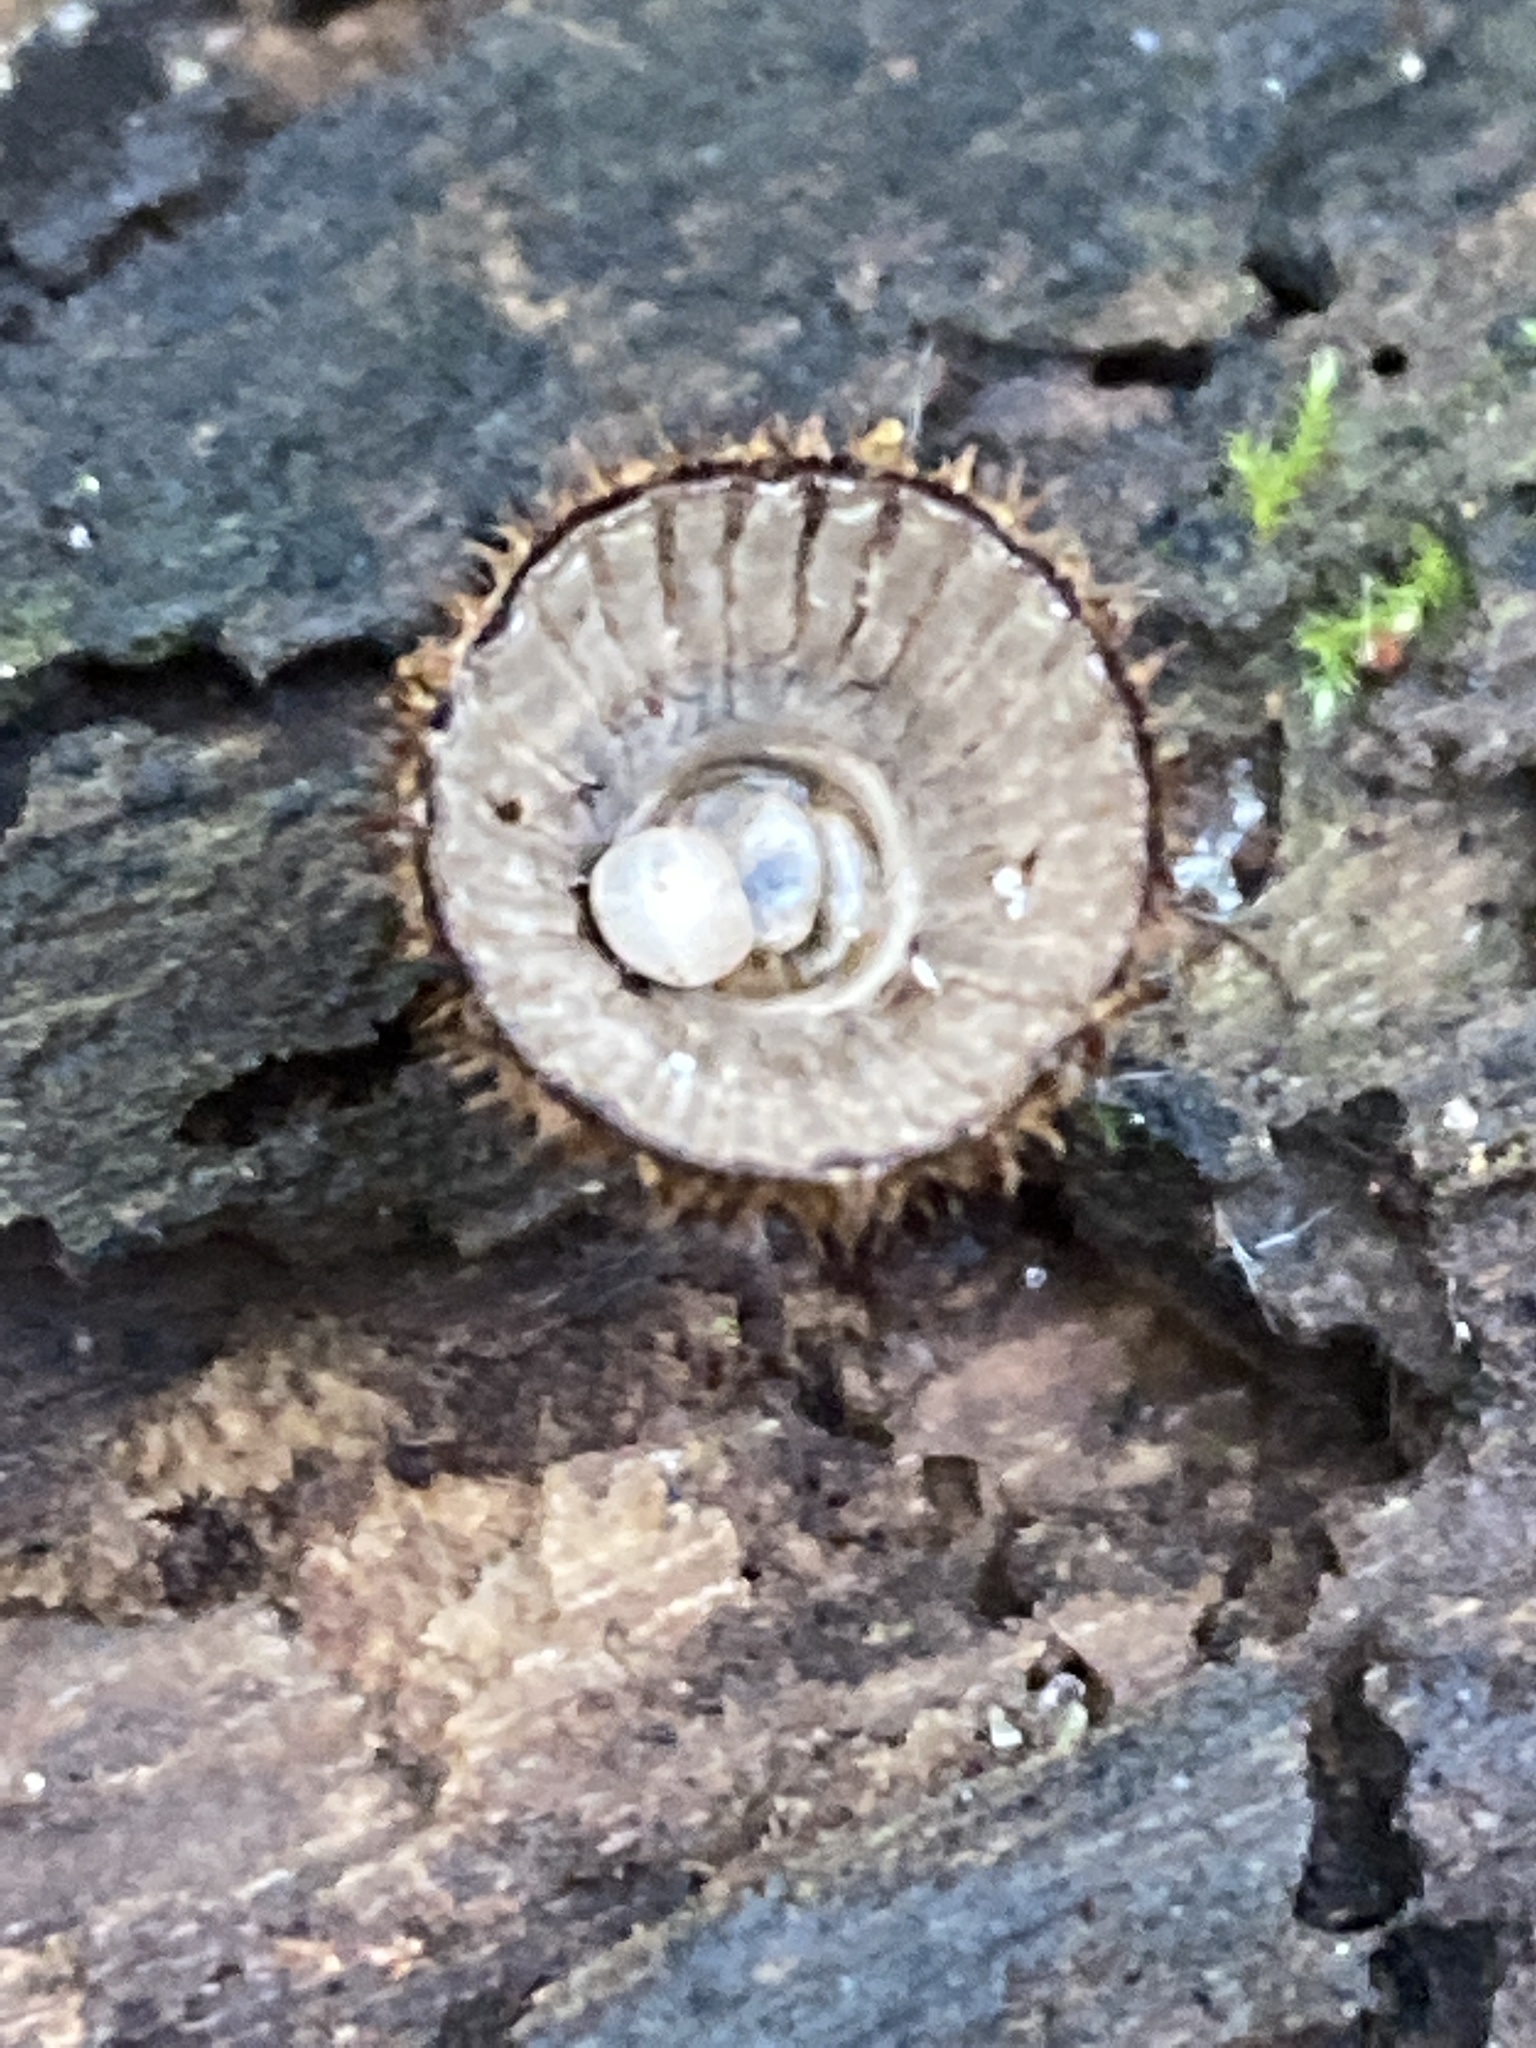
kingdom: Fungi
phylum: Basidiomycota
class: Agaricomycetes
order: Agaricales
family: Agaricaceae
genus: Cyathus
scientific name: Cyathus striatus
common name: Fluted bird's nest
